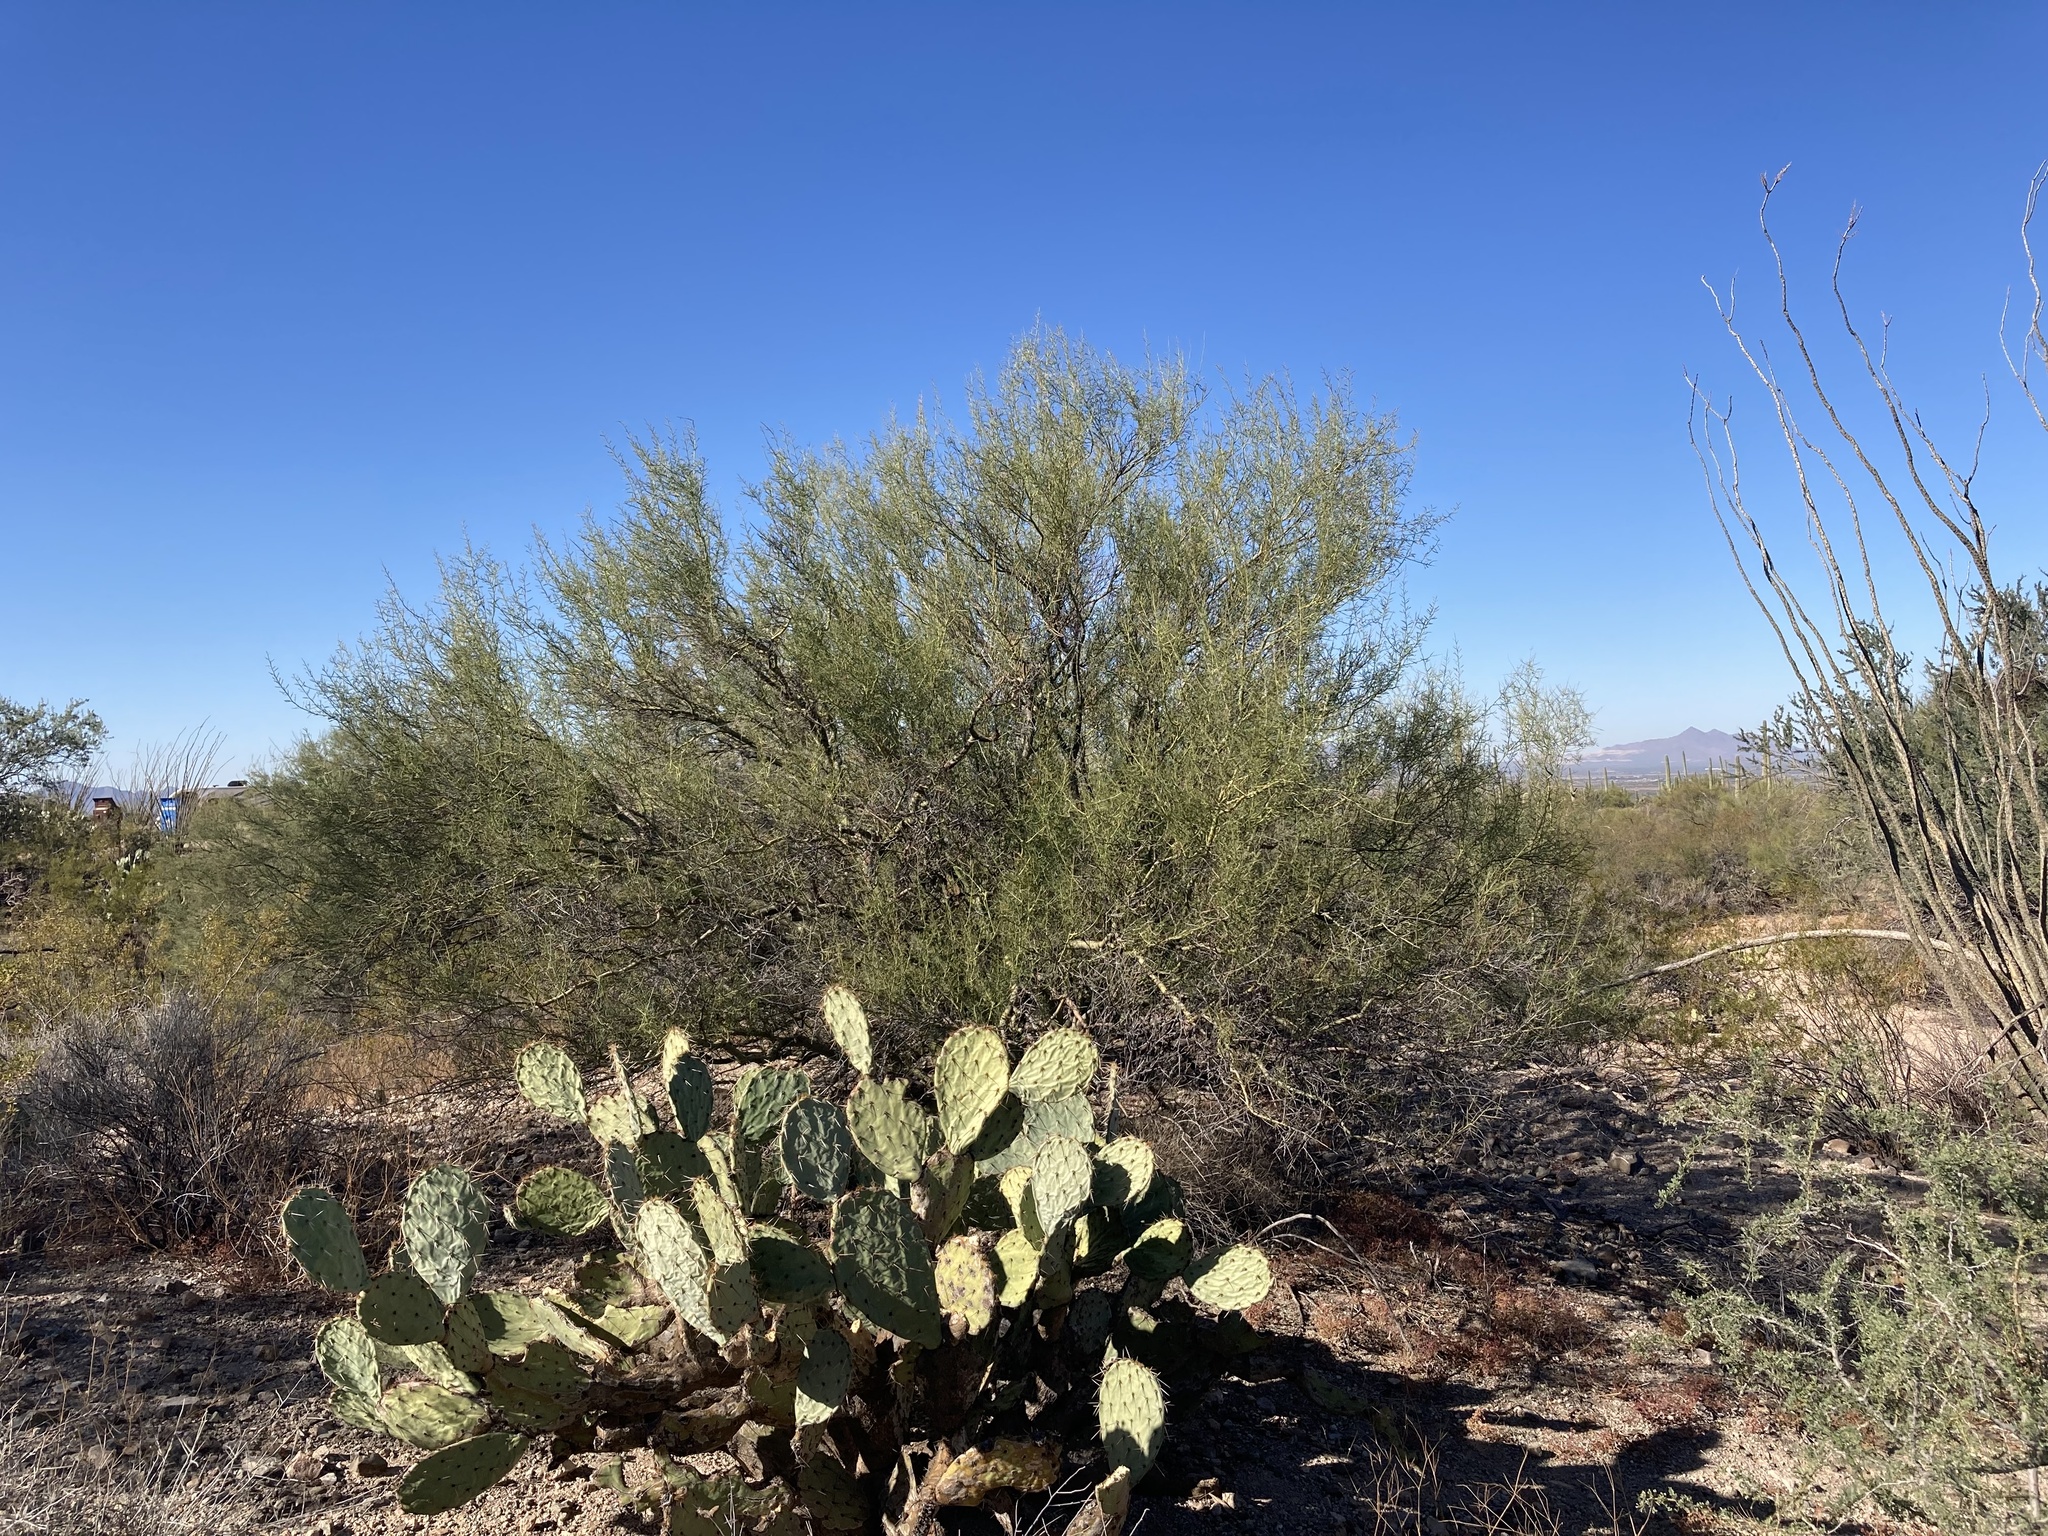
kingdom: Plantae
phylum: Tracheophyta
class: Magnoliopsida
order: Fabales
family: Fabaceae
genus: Parkinsonia
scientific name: Parkinsonia microphylla
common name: Yellow paloverde
